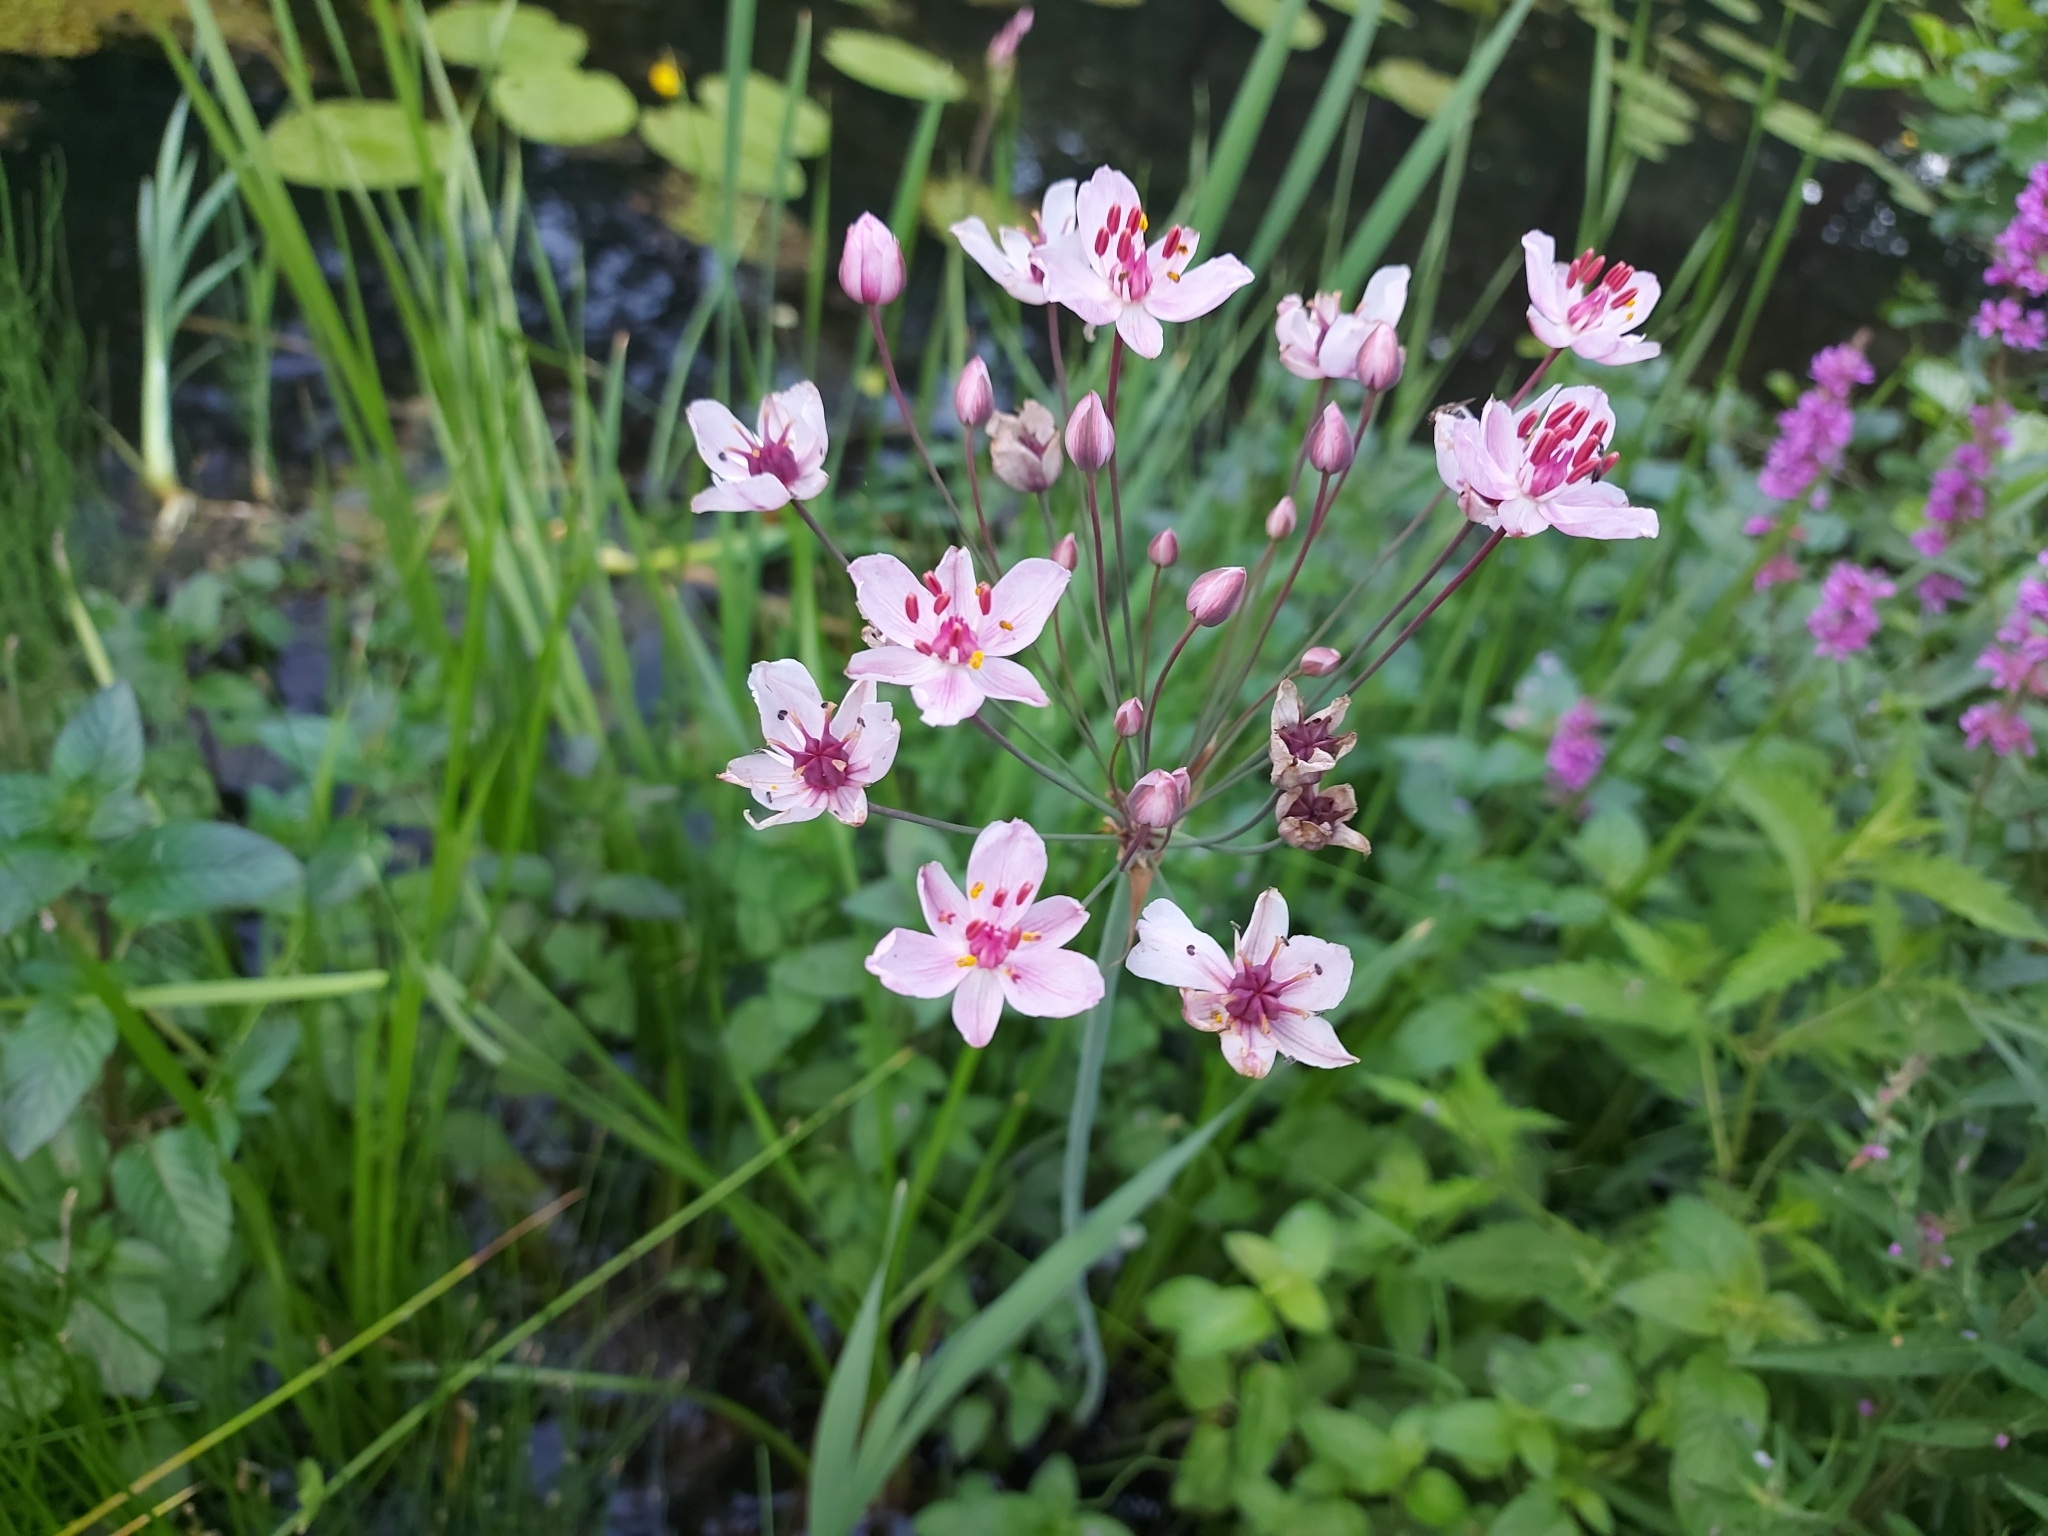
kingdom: Plantae
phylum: Tracheophyta
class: Liliopsida
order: Alismatales
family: Butomaceae
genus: Butomus
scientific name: Butomus umbellatus
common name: Flowering-rush
